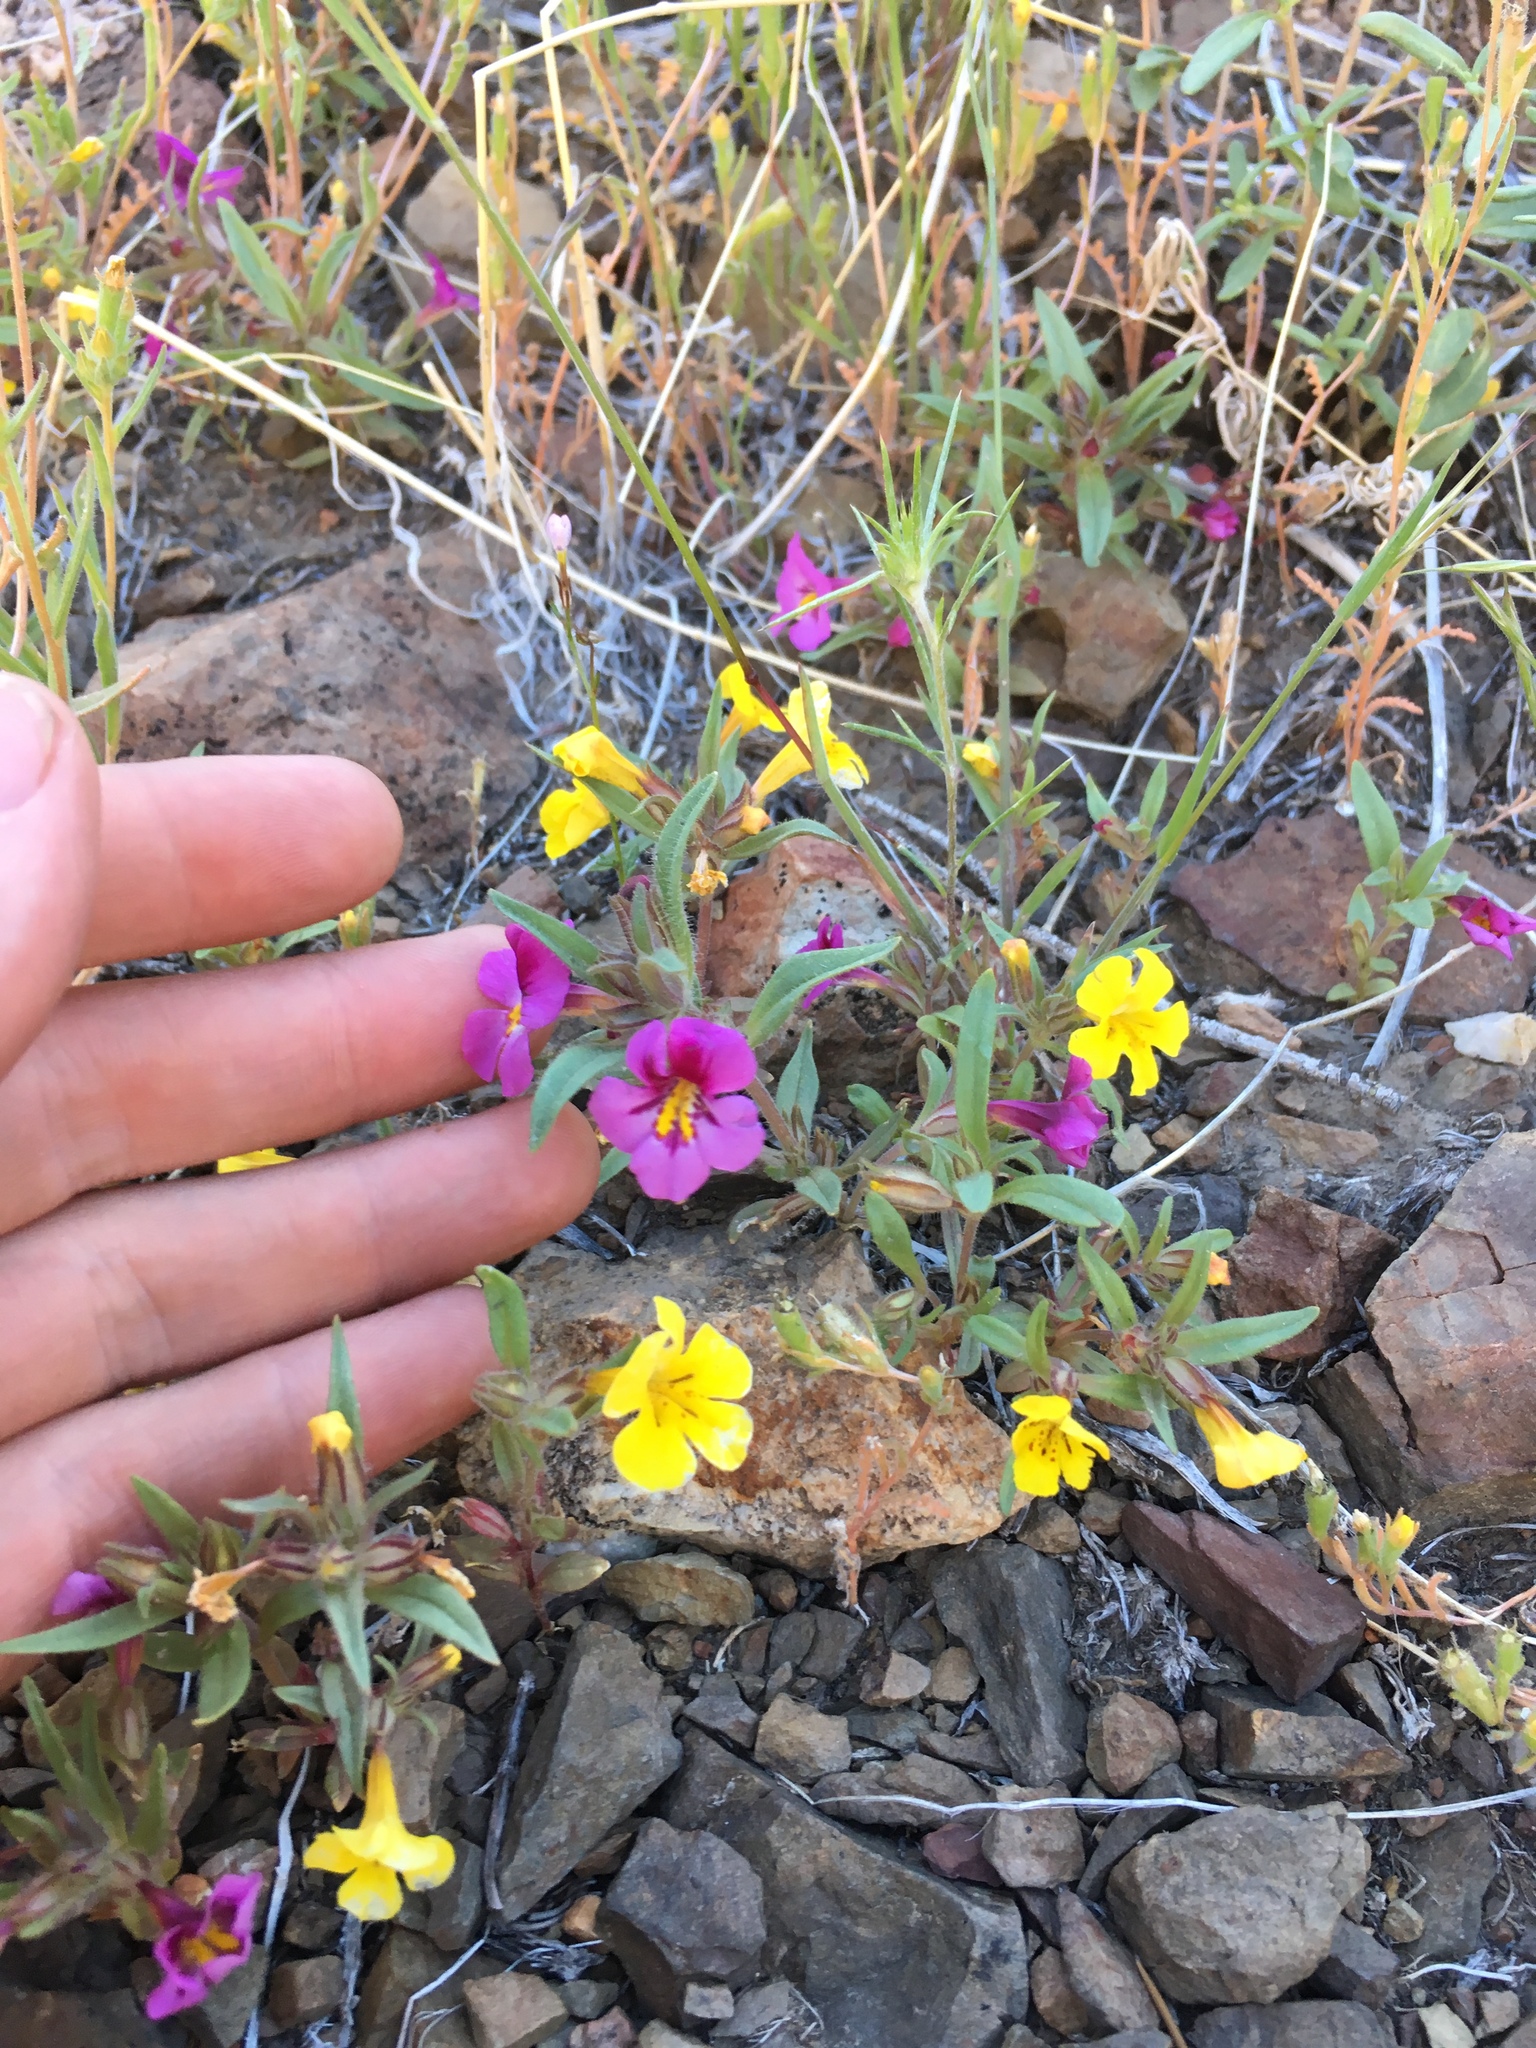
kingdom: Plantae
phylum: Tracheophyta
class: Magnoliopsida
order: Lamiales
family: Phrymaceae
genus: Diplacus
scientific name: Diplacus mephiticus
